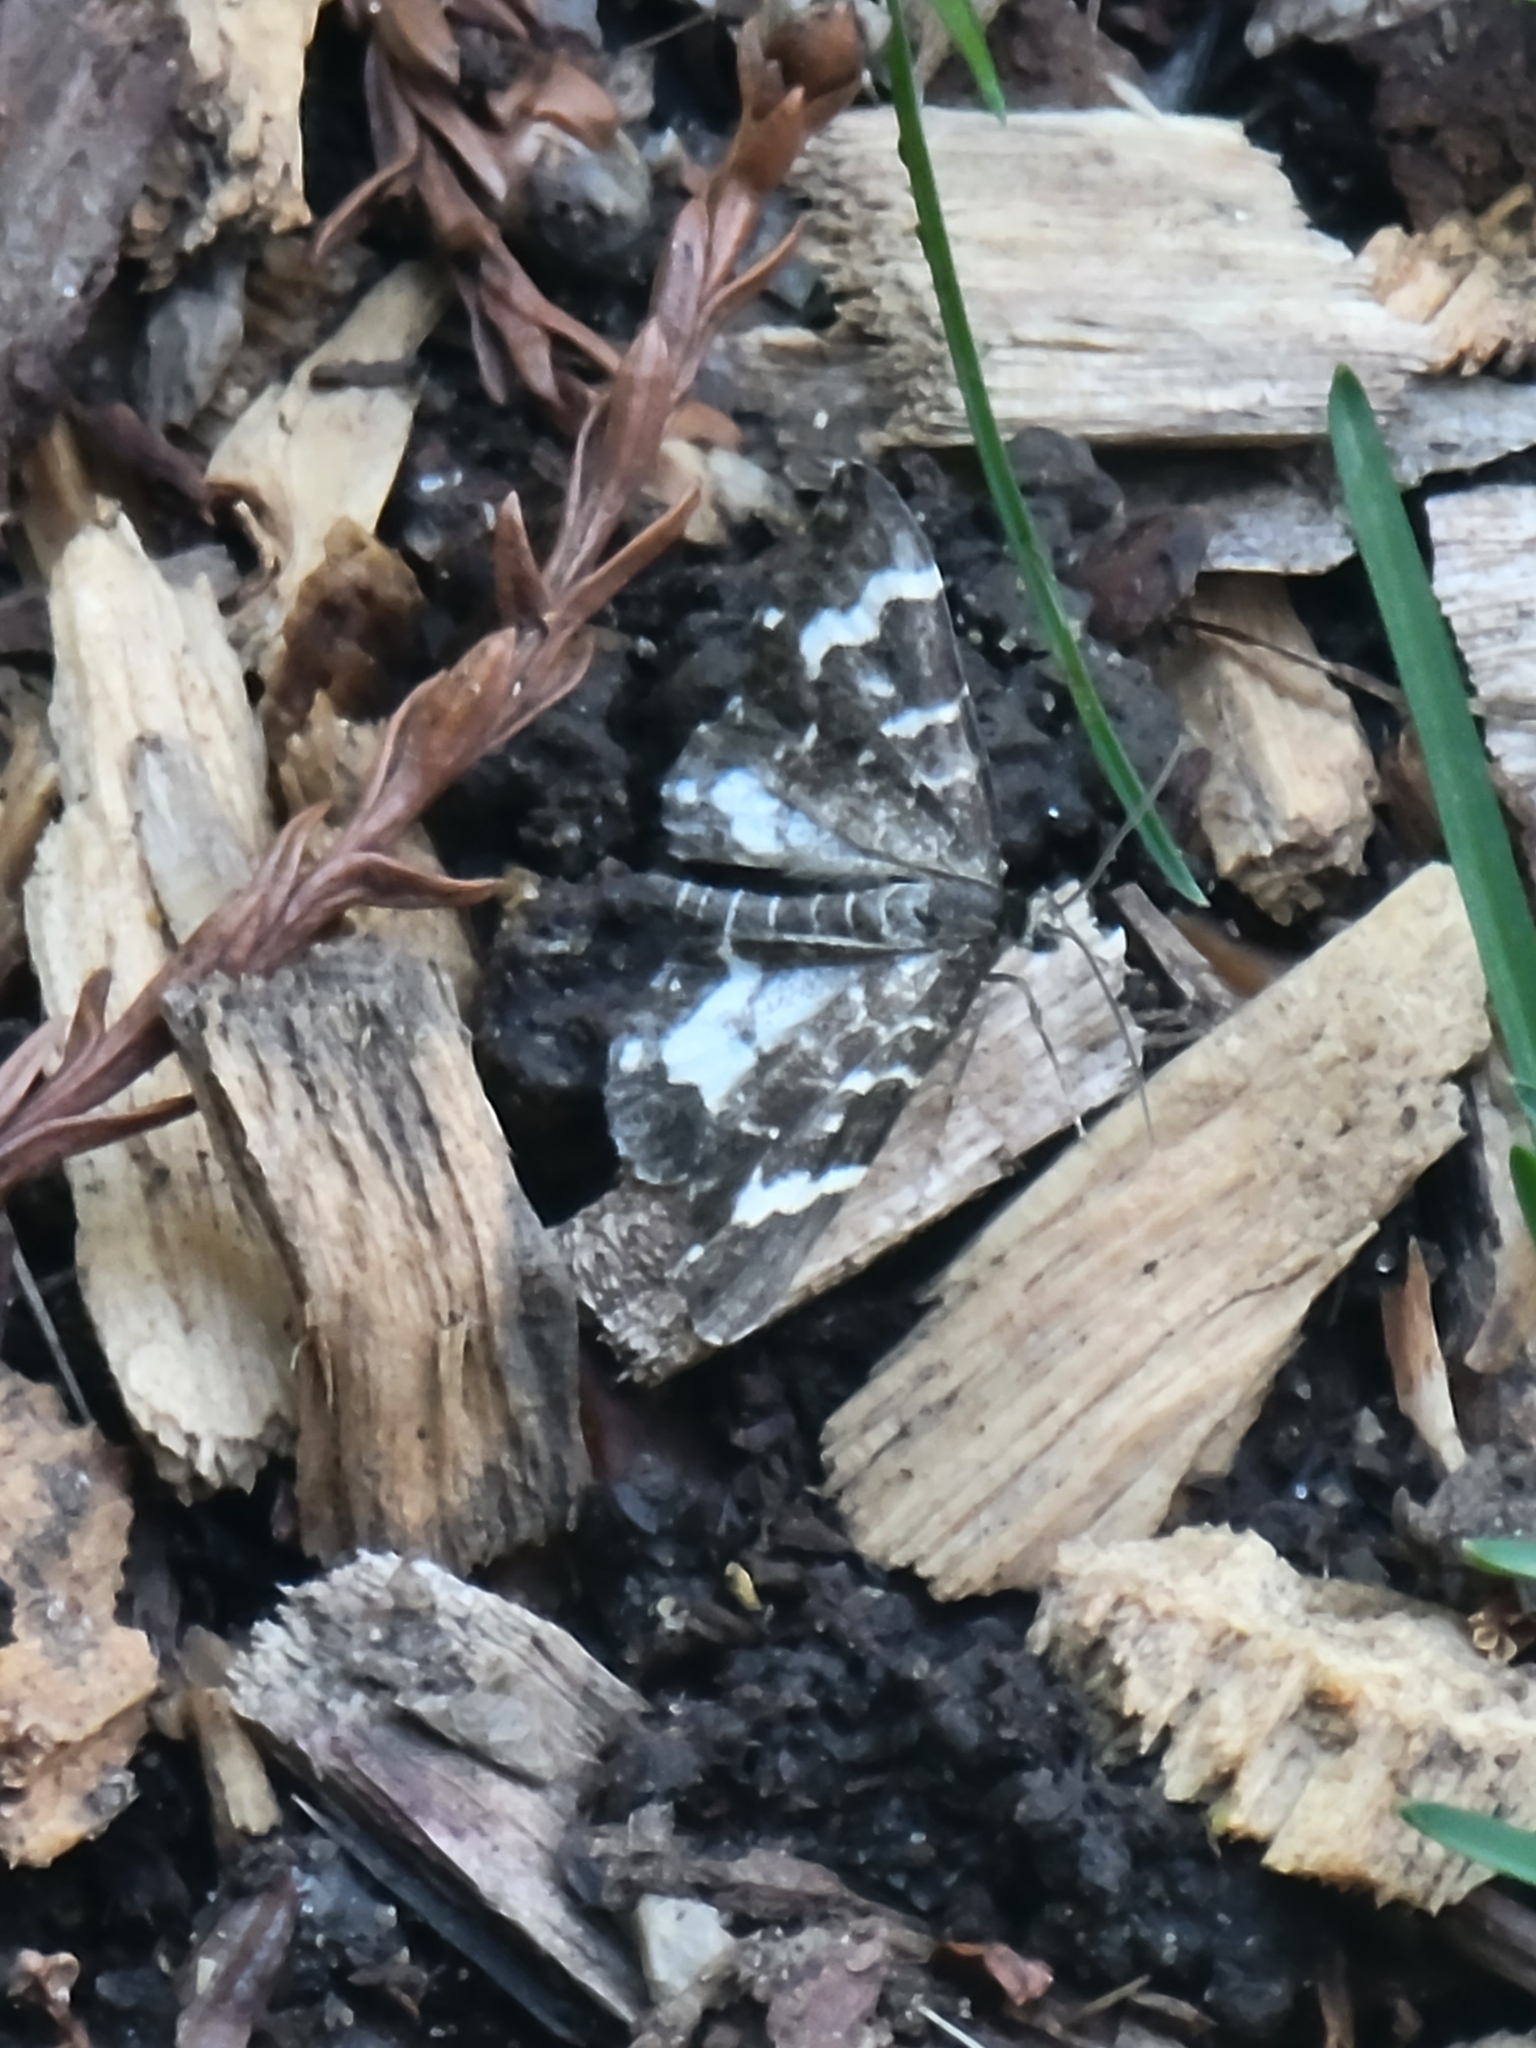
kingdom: Animalia
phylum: Arthropoda
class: Insecta
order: Lepidoptera
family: Geometridae
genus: Trichodezia
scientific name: Trichodezia californiata
